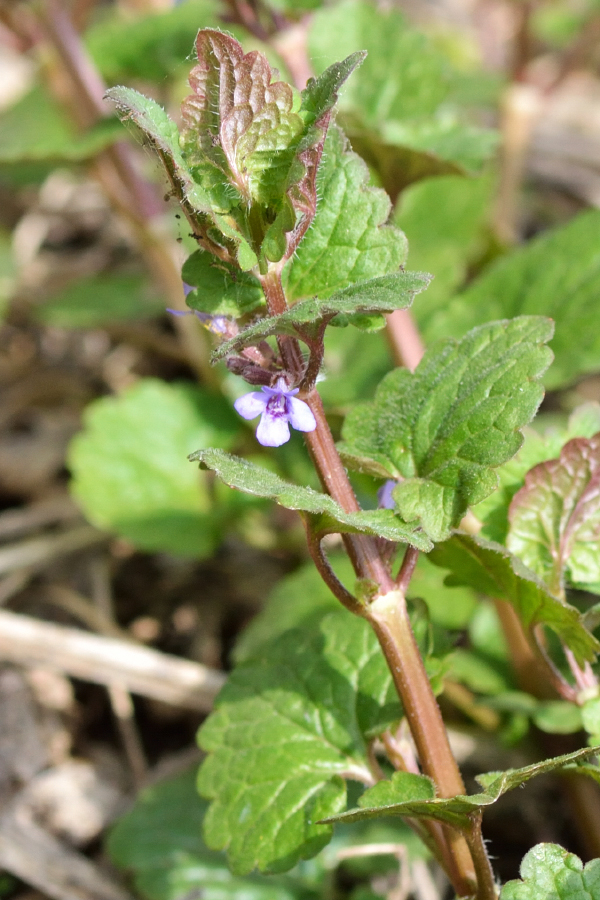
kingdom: Plantae
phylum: Tracheophyta
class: Magnoliopsida
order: Lamiales
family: Lamiaceae
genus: Glechoma
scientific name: Glechoma hederacea
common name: Ground ivy
